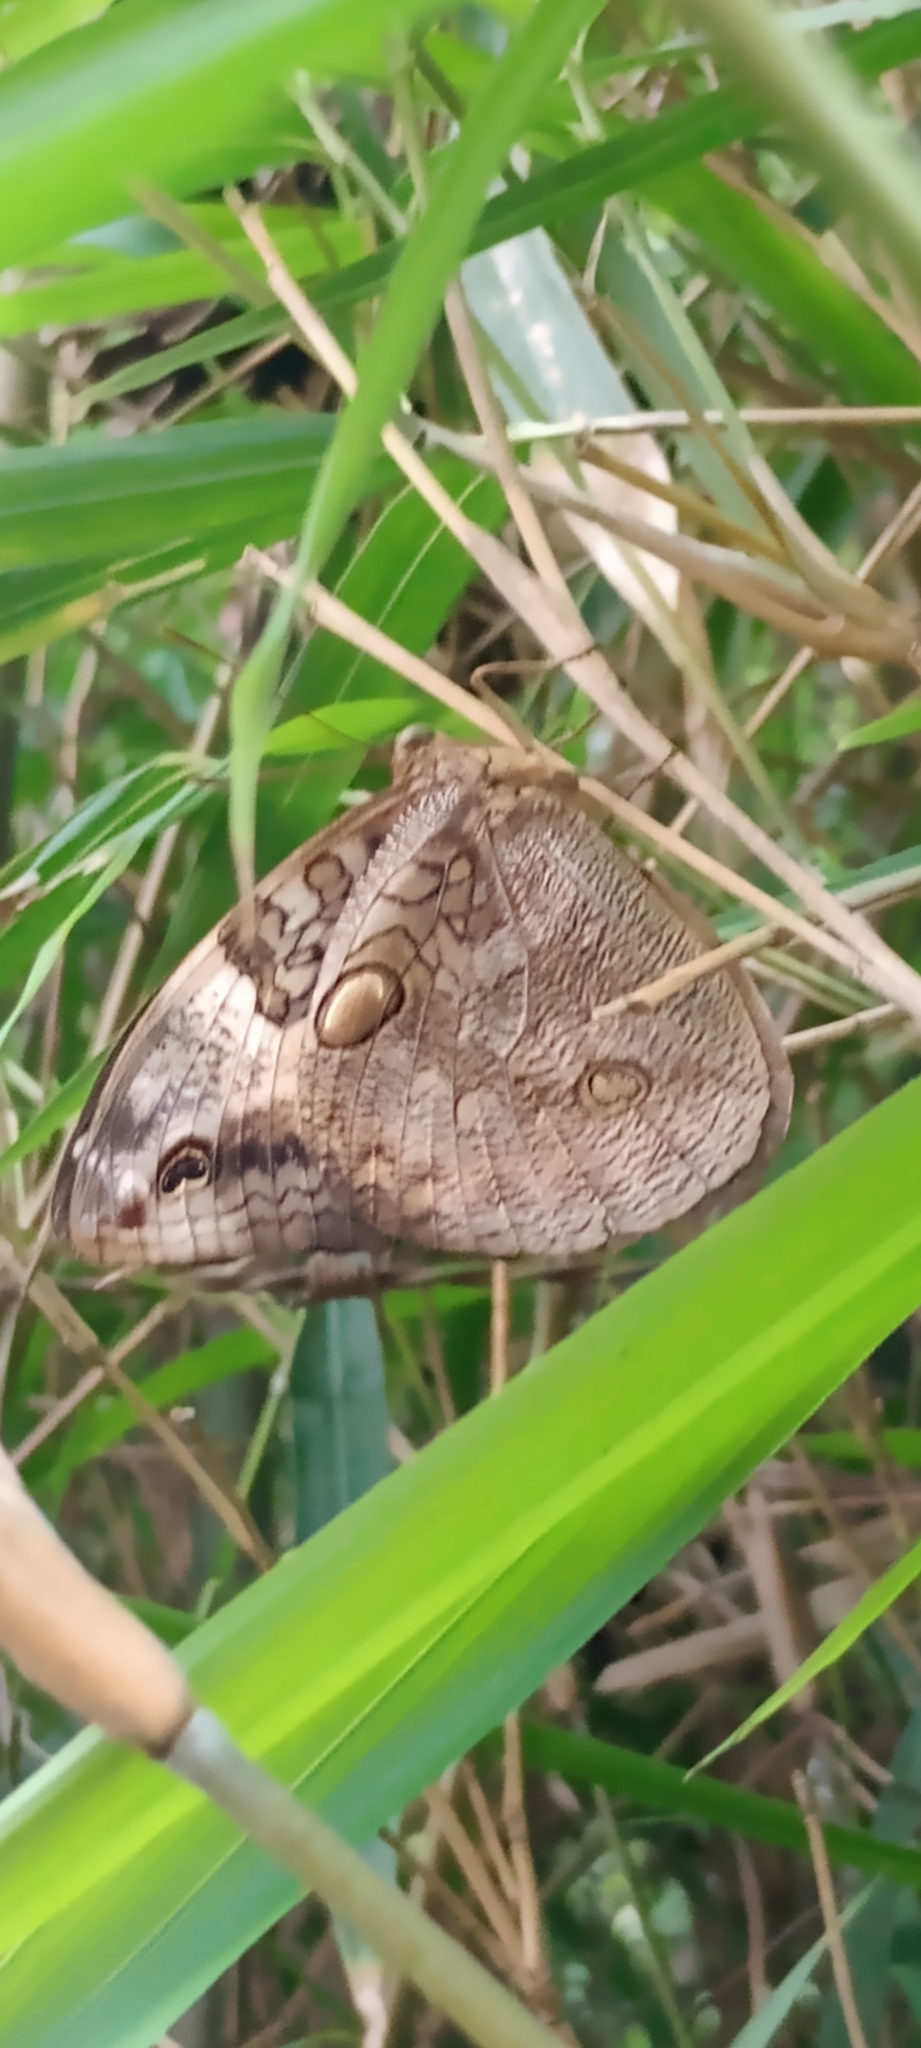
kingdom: Animalia
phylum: Arthropoda
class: Insecta
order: Lepidoptera
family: Nymphalidae
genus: Opsiphanes
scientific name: Opsiphanes invirae
